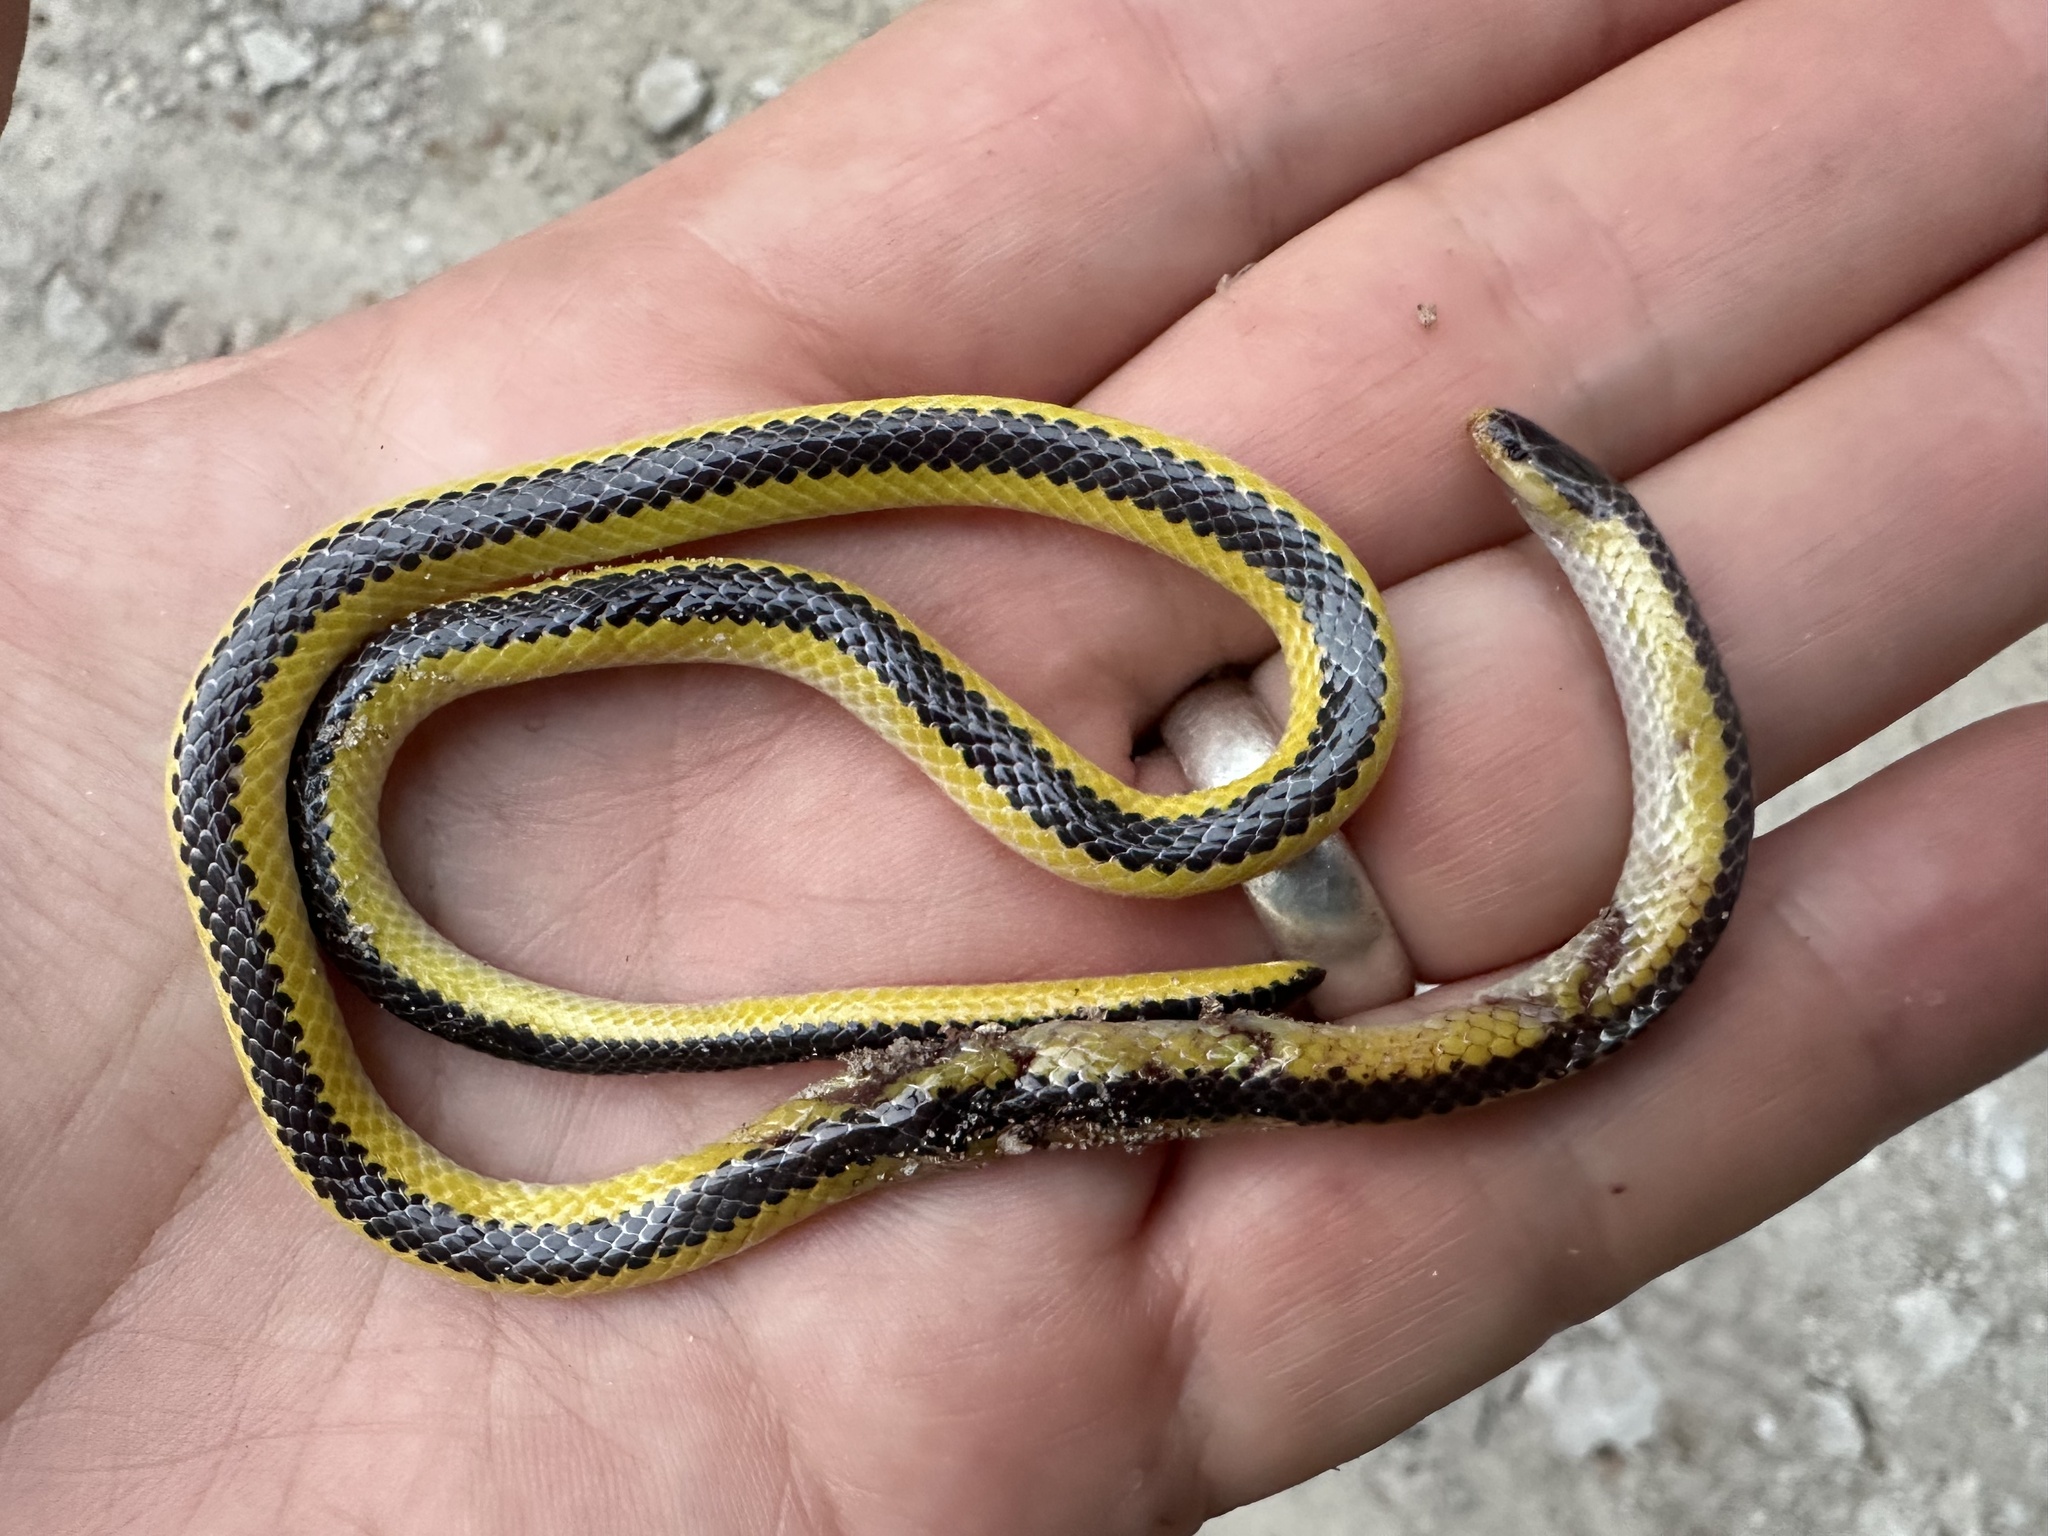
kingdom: Animalia
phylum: Chordata
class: Squamata
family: Atractaspididae
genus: Xenocalamus
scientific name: Xenocalamus bicolor
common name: Bicoloured quill-snouted snake
